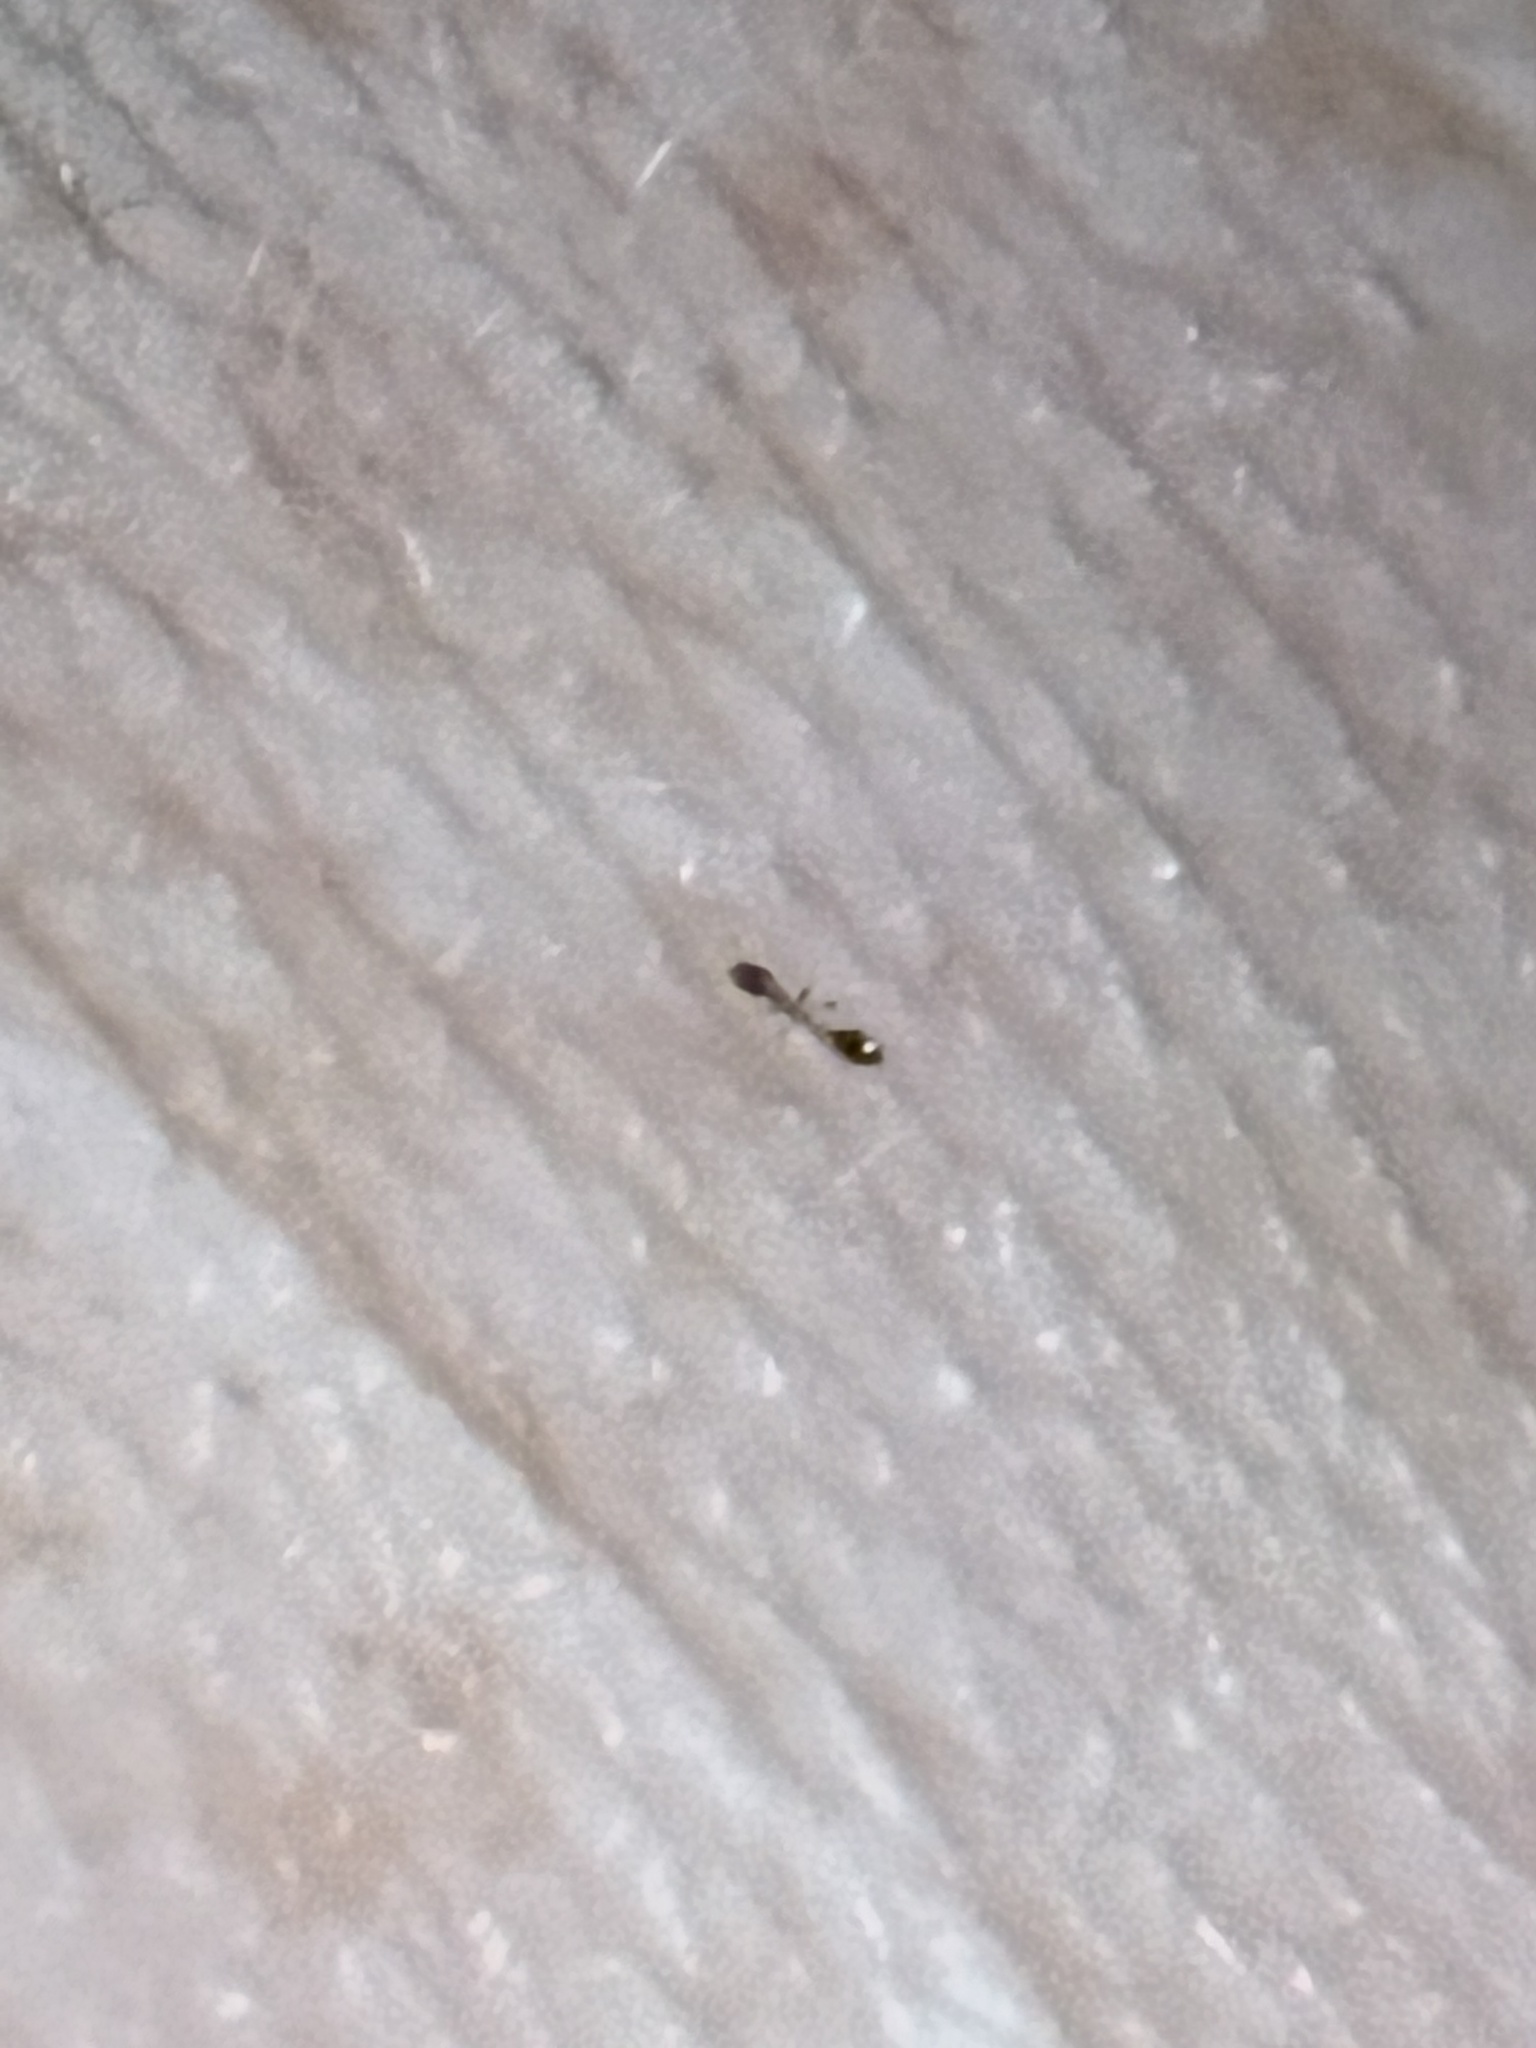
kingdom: Animalia
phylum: Arthropoda
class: Insecta
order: Hymenoptera
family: Formicidae
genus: Monomorium
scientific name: Monomorium floricola
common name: Bicolored trailing ant
